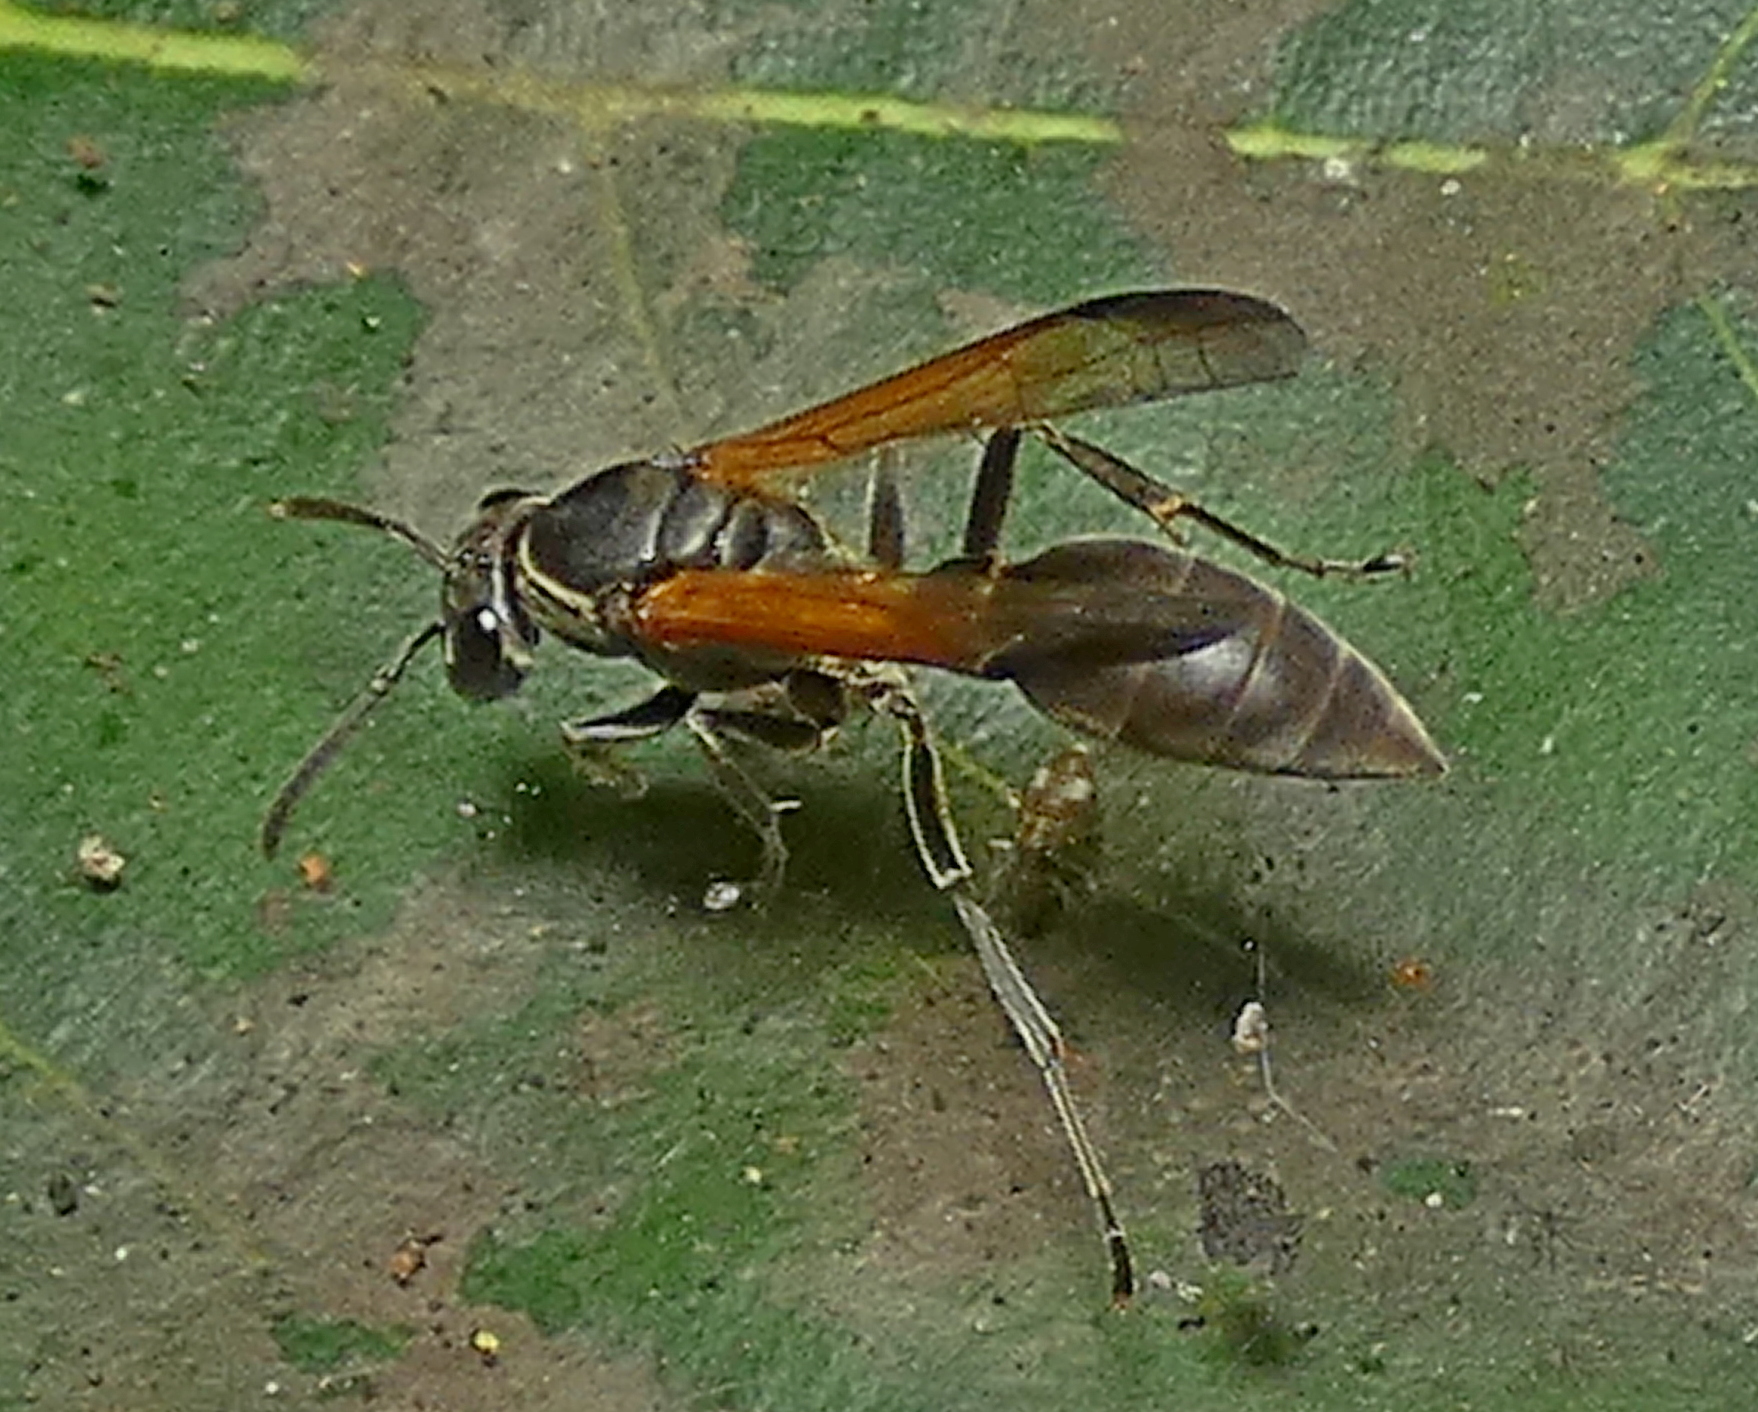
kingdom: Animalia
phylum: Arthropoda
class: Insecta
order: Hymenoptera
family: Eumenidae
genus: Polybia
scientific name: Polybia rejecta
